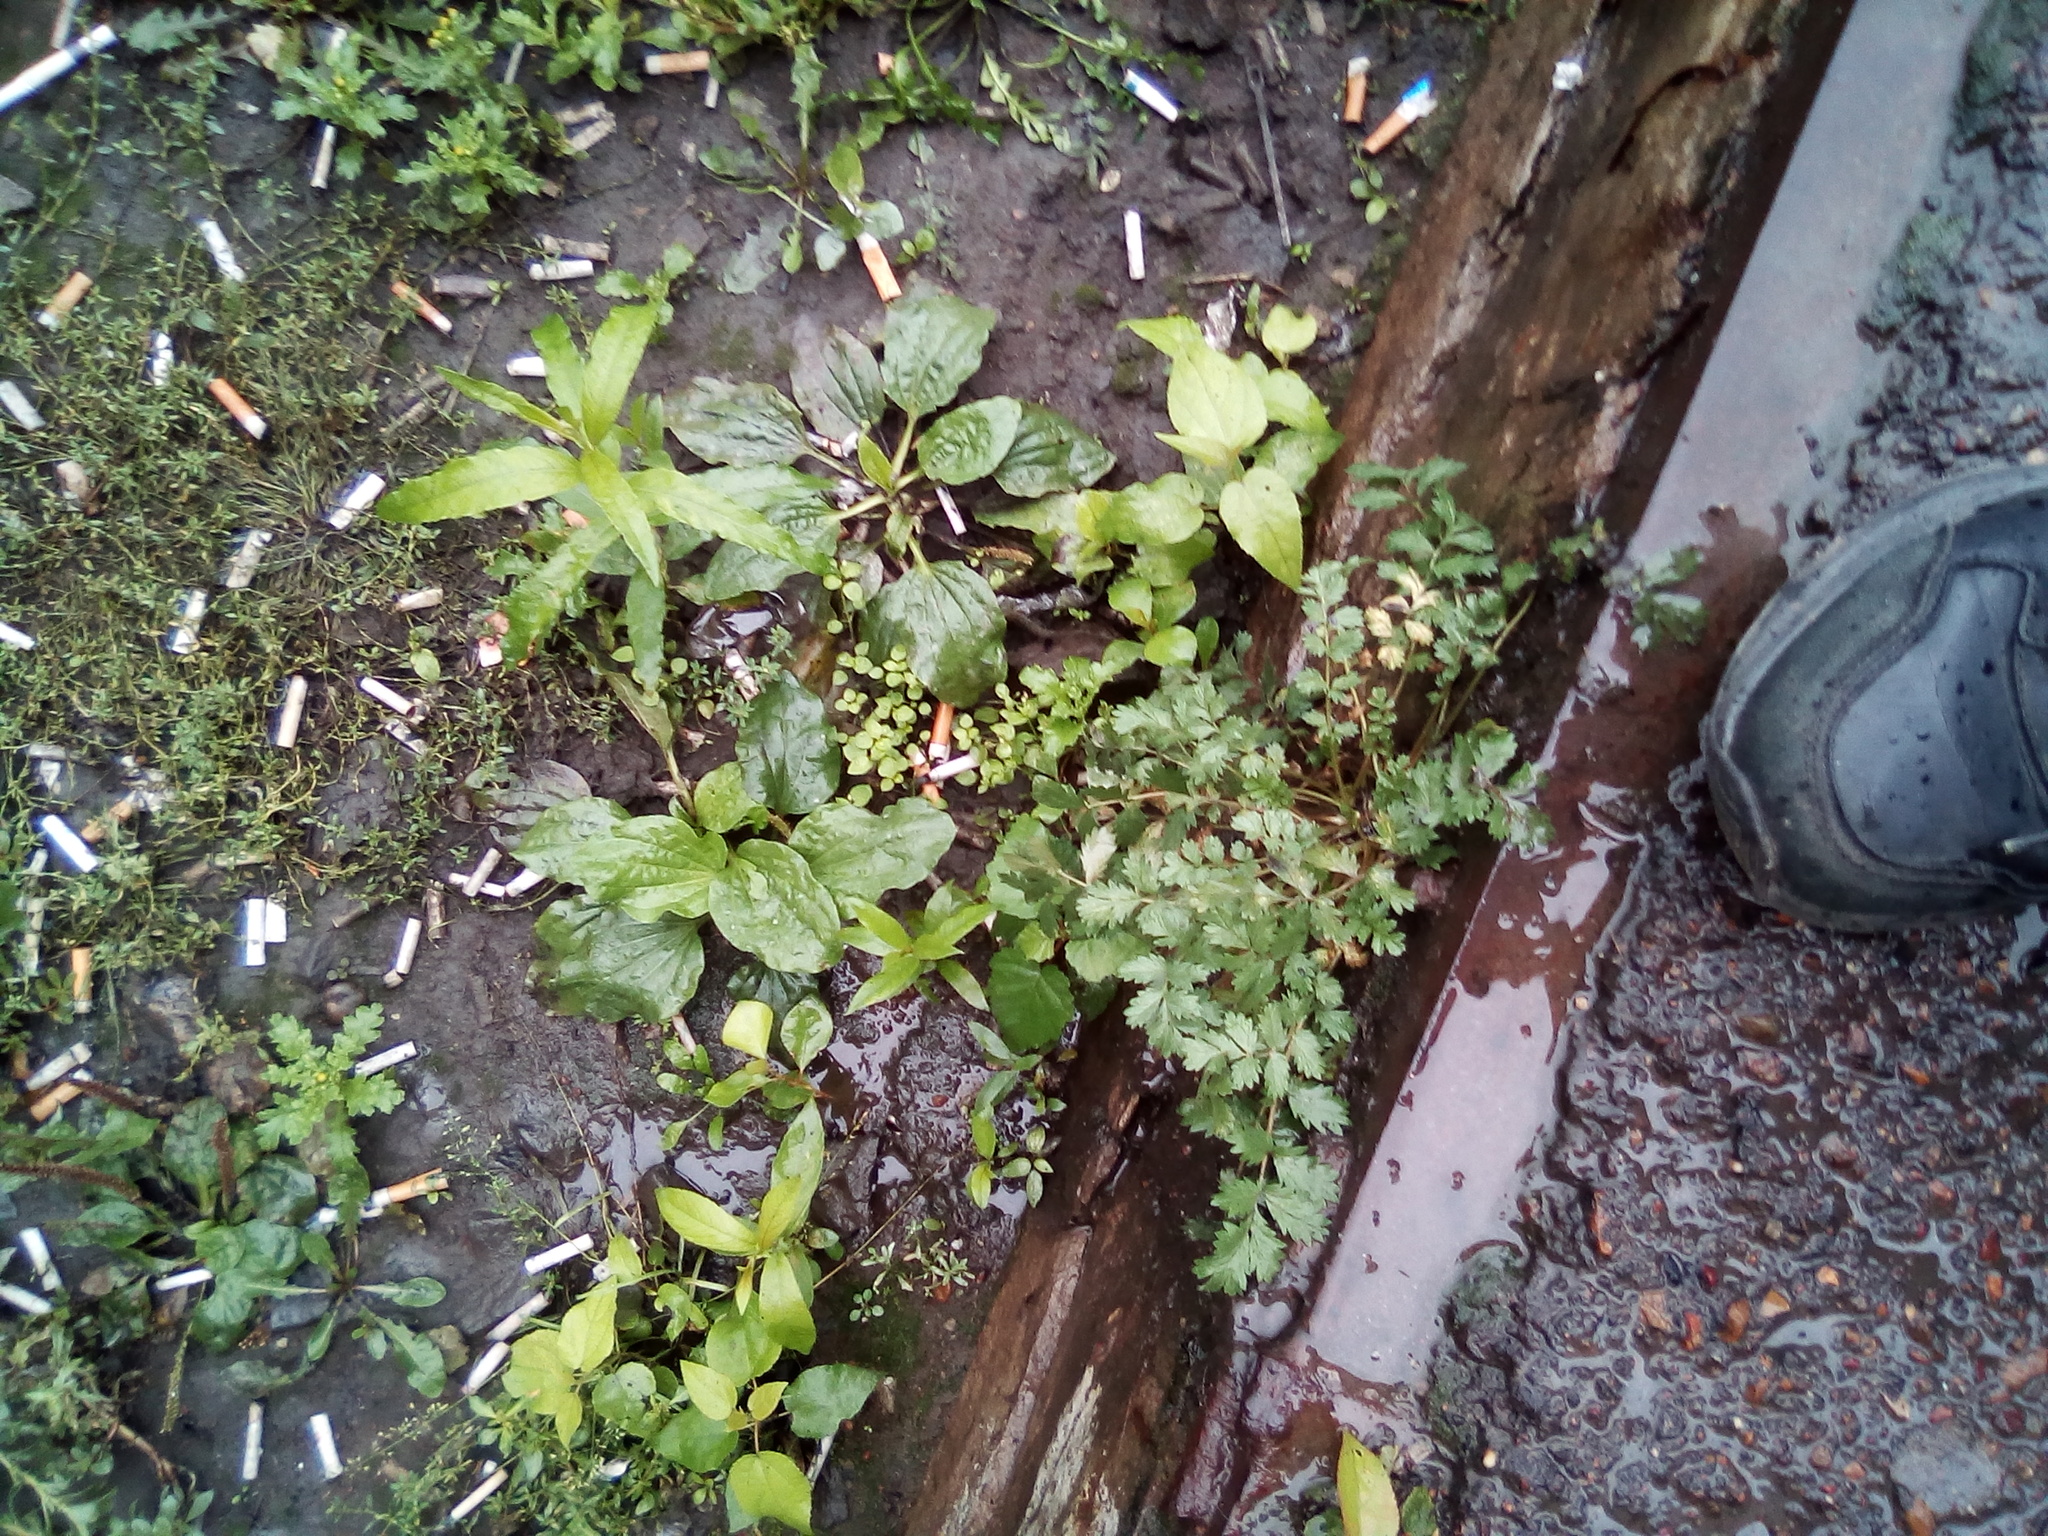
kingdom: Plantae
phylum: Tracheophyta
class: Magnoliopsida
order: Rosales
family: Rosaceae
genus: Potentilla
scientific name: Potentilla supina
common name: Prostrate cinquefoil
